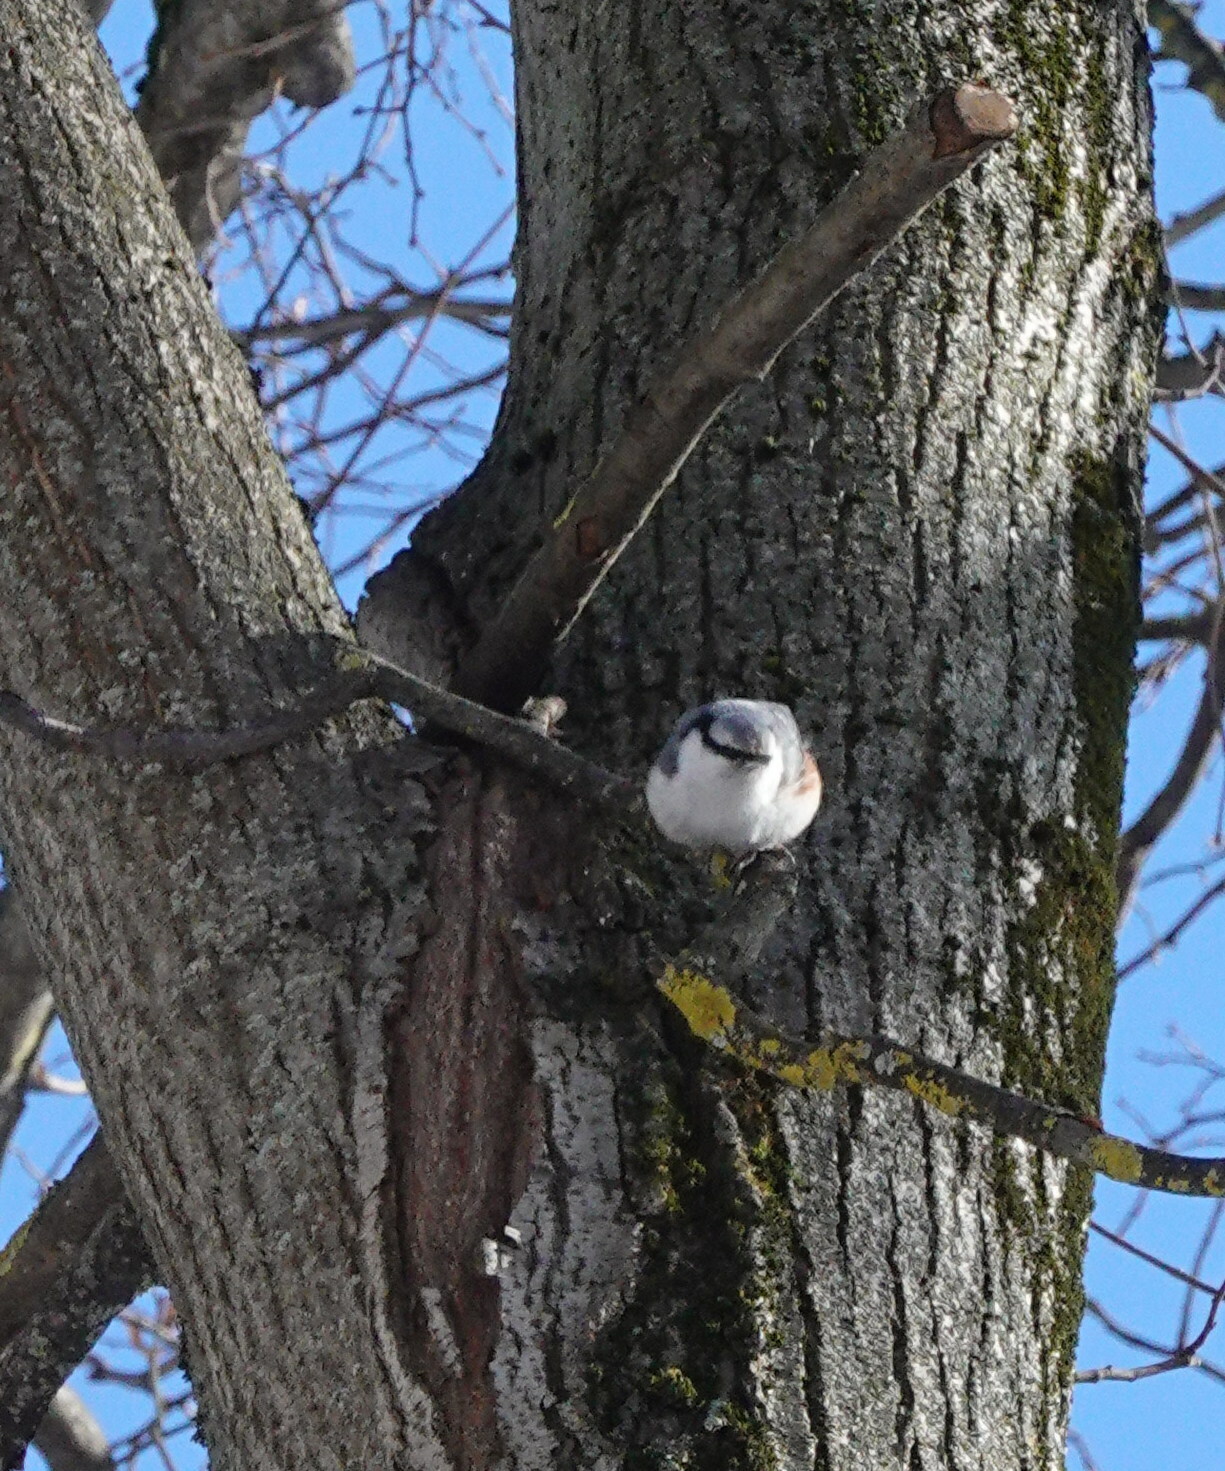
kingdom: Animalia
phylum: Chordata
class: Aves
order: Passeriformes
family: Sittidae
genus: Sitta
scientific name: Sitta europaea
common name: Eurasian nuthatch
